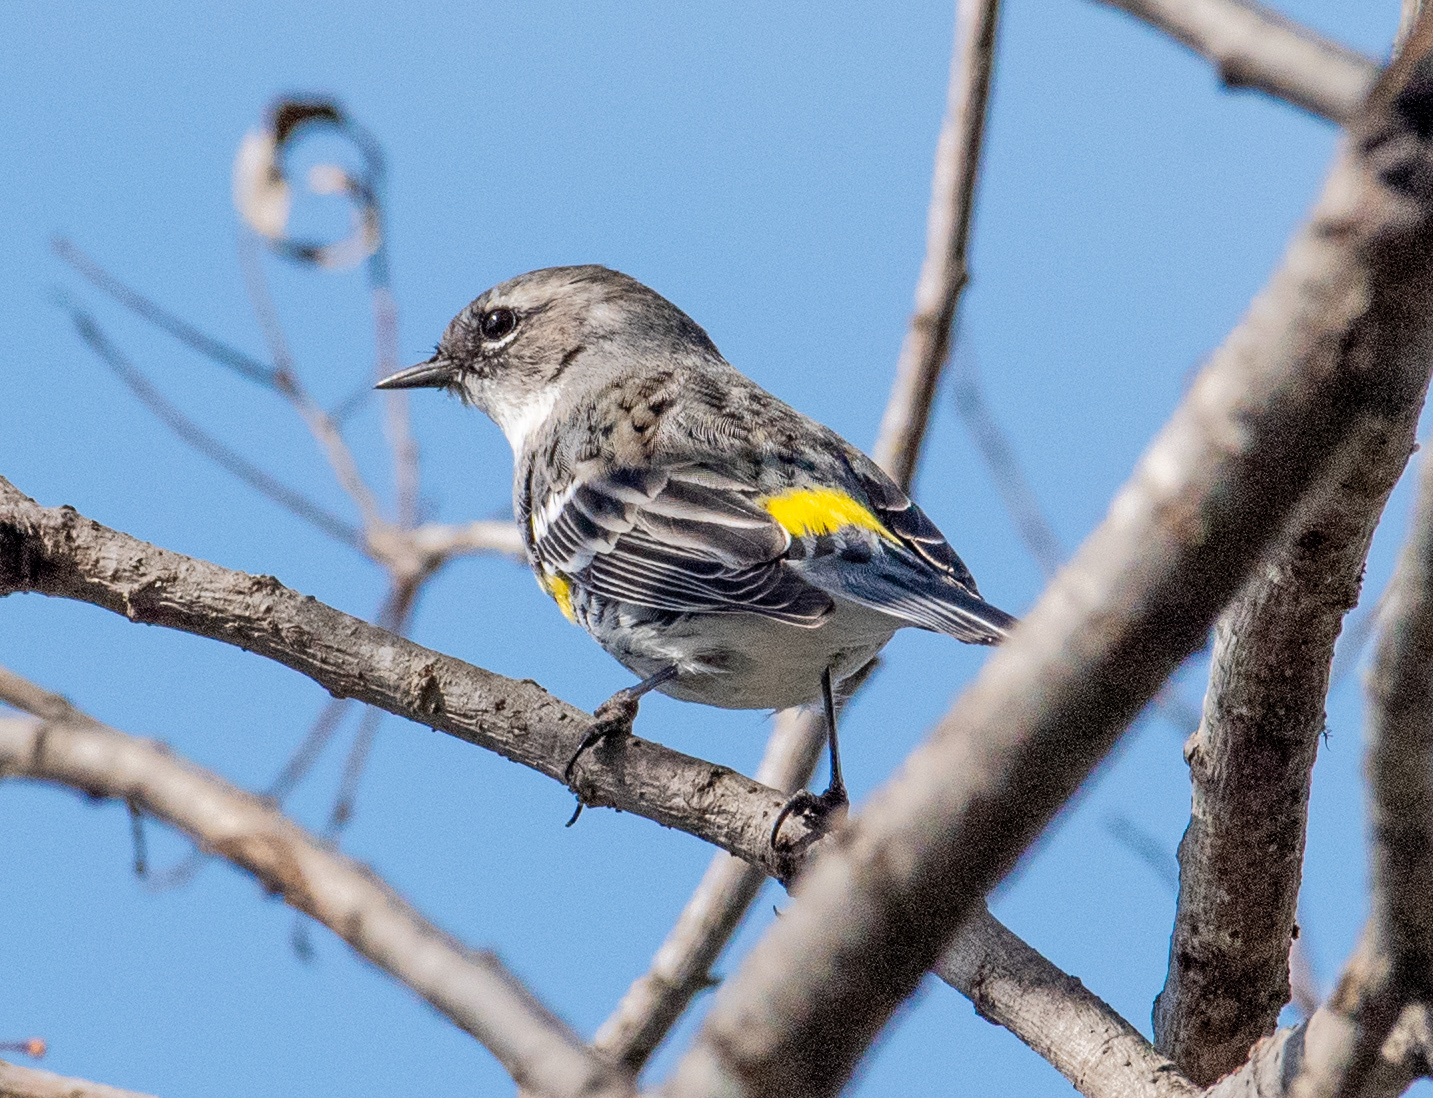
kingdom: Animalia
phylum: Chordata
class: Aves
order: Passeriformes
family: Parulidae
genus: Setophaga
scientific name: Setophaga coronata
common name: Myrtle warbler
